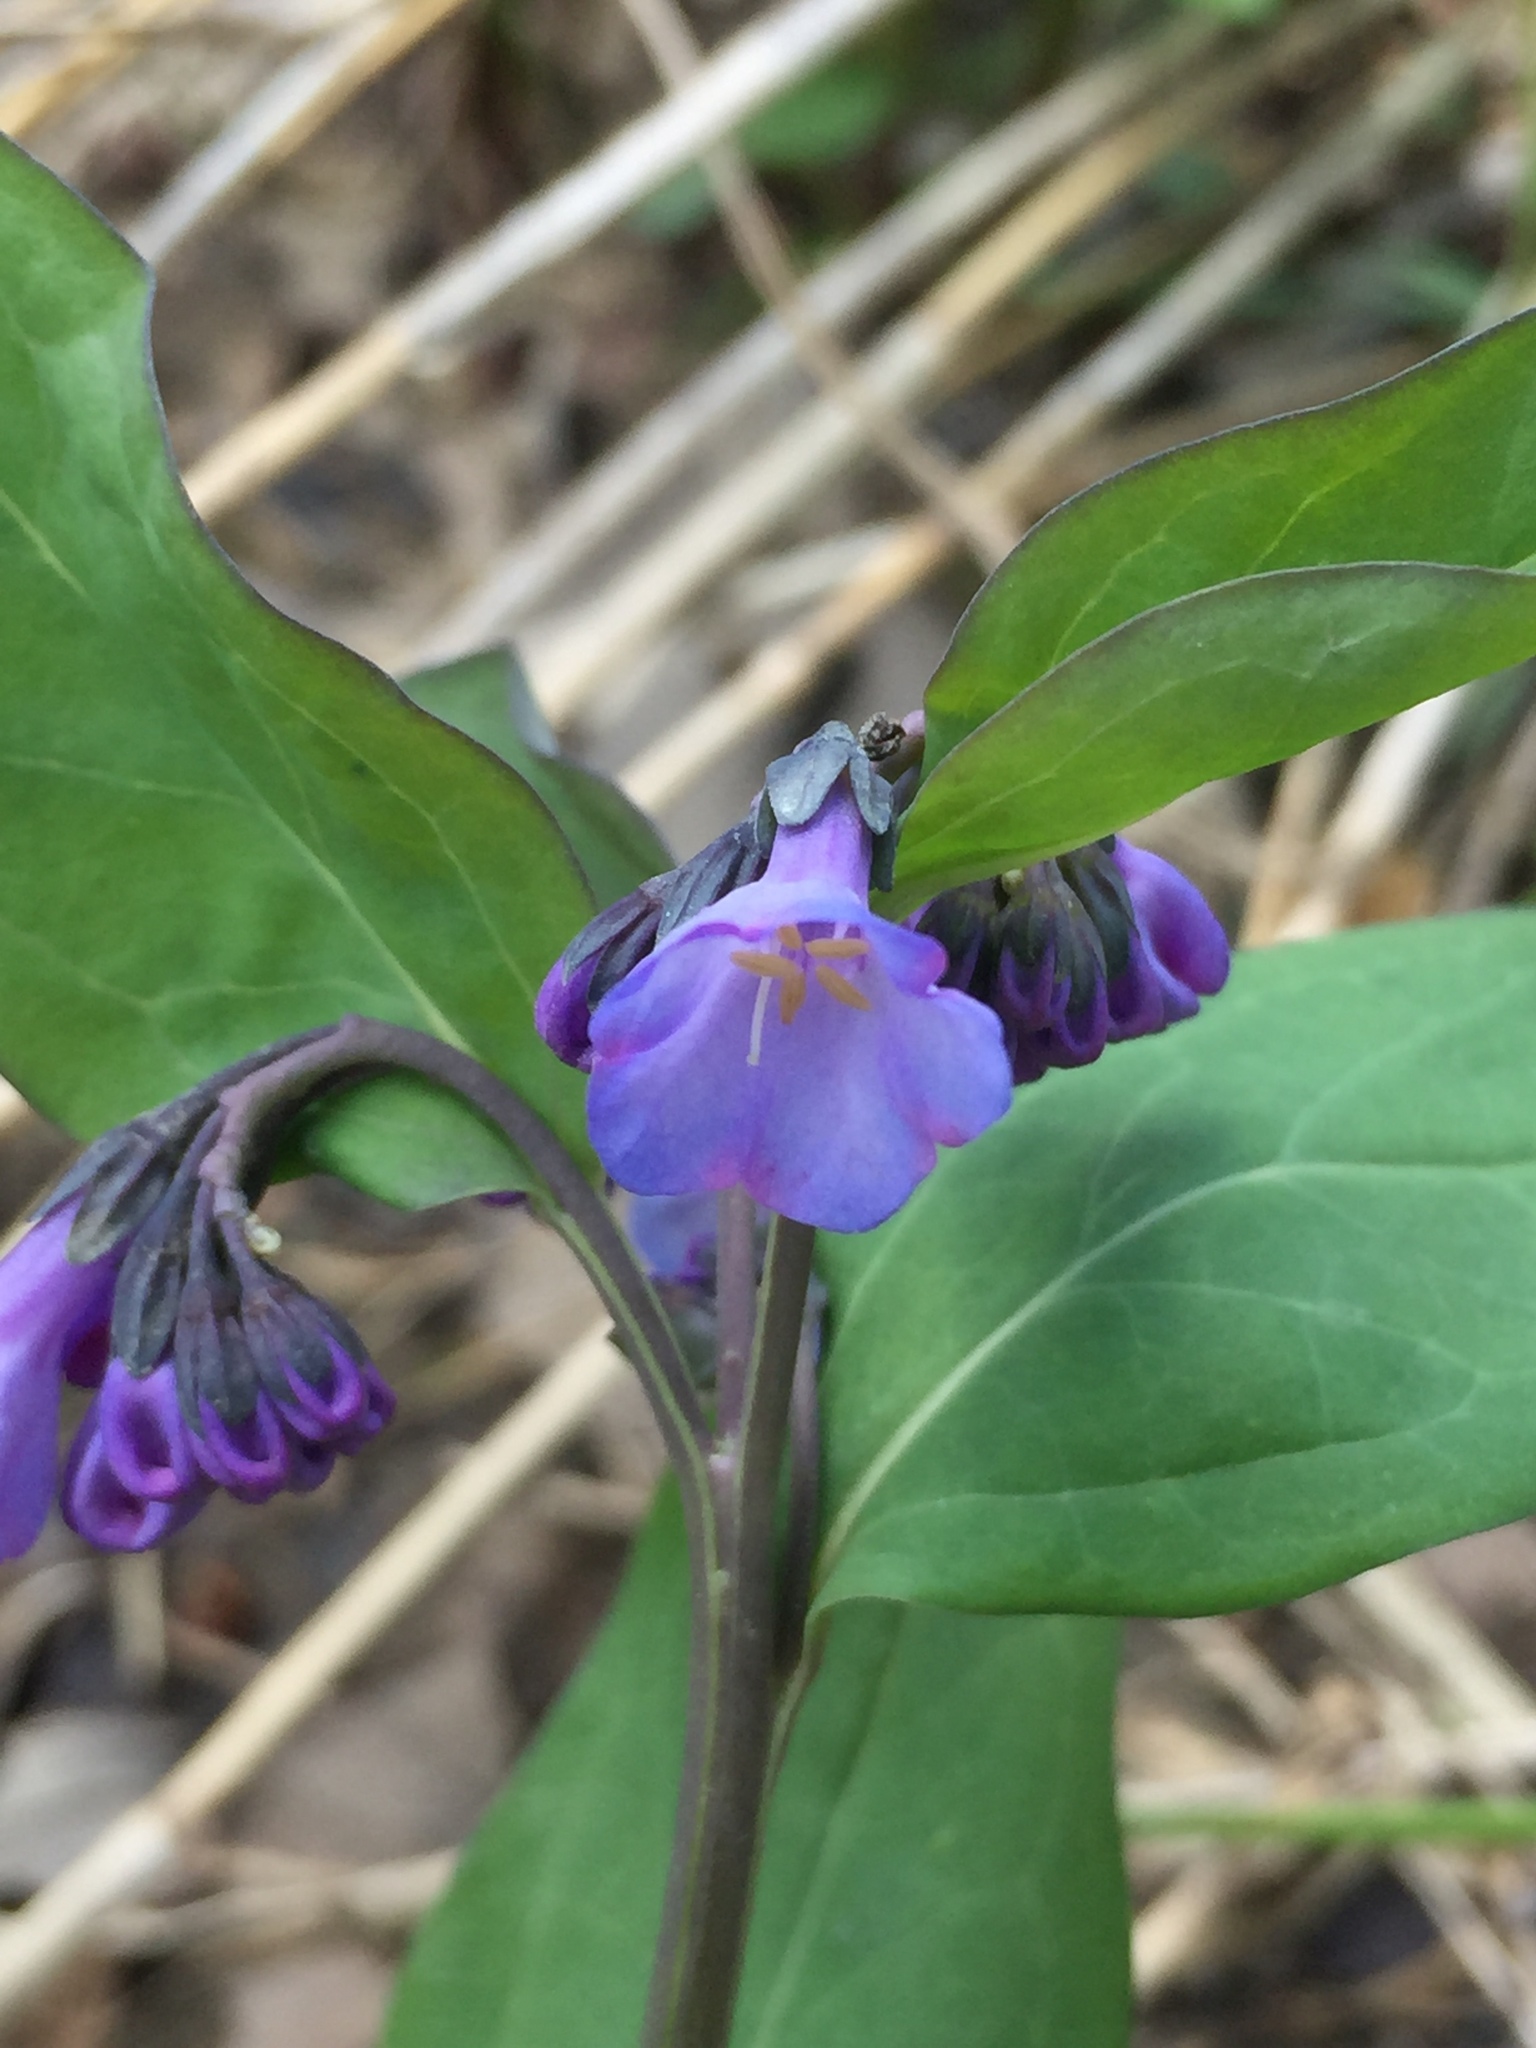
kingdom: Plantae
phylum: Tracheophyta
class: Magnoliopsida
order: Boraginales
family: Boraginaceae
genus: Mertensia
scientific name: Mertensia virginica
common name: Virginia bluebells
